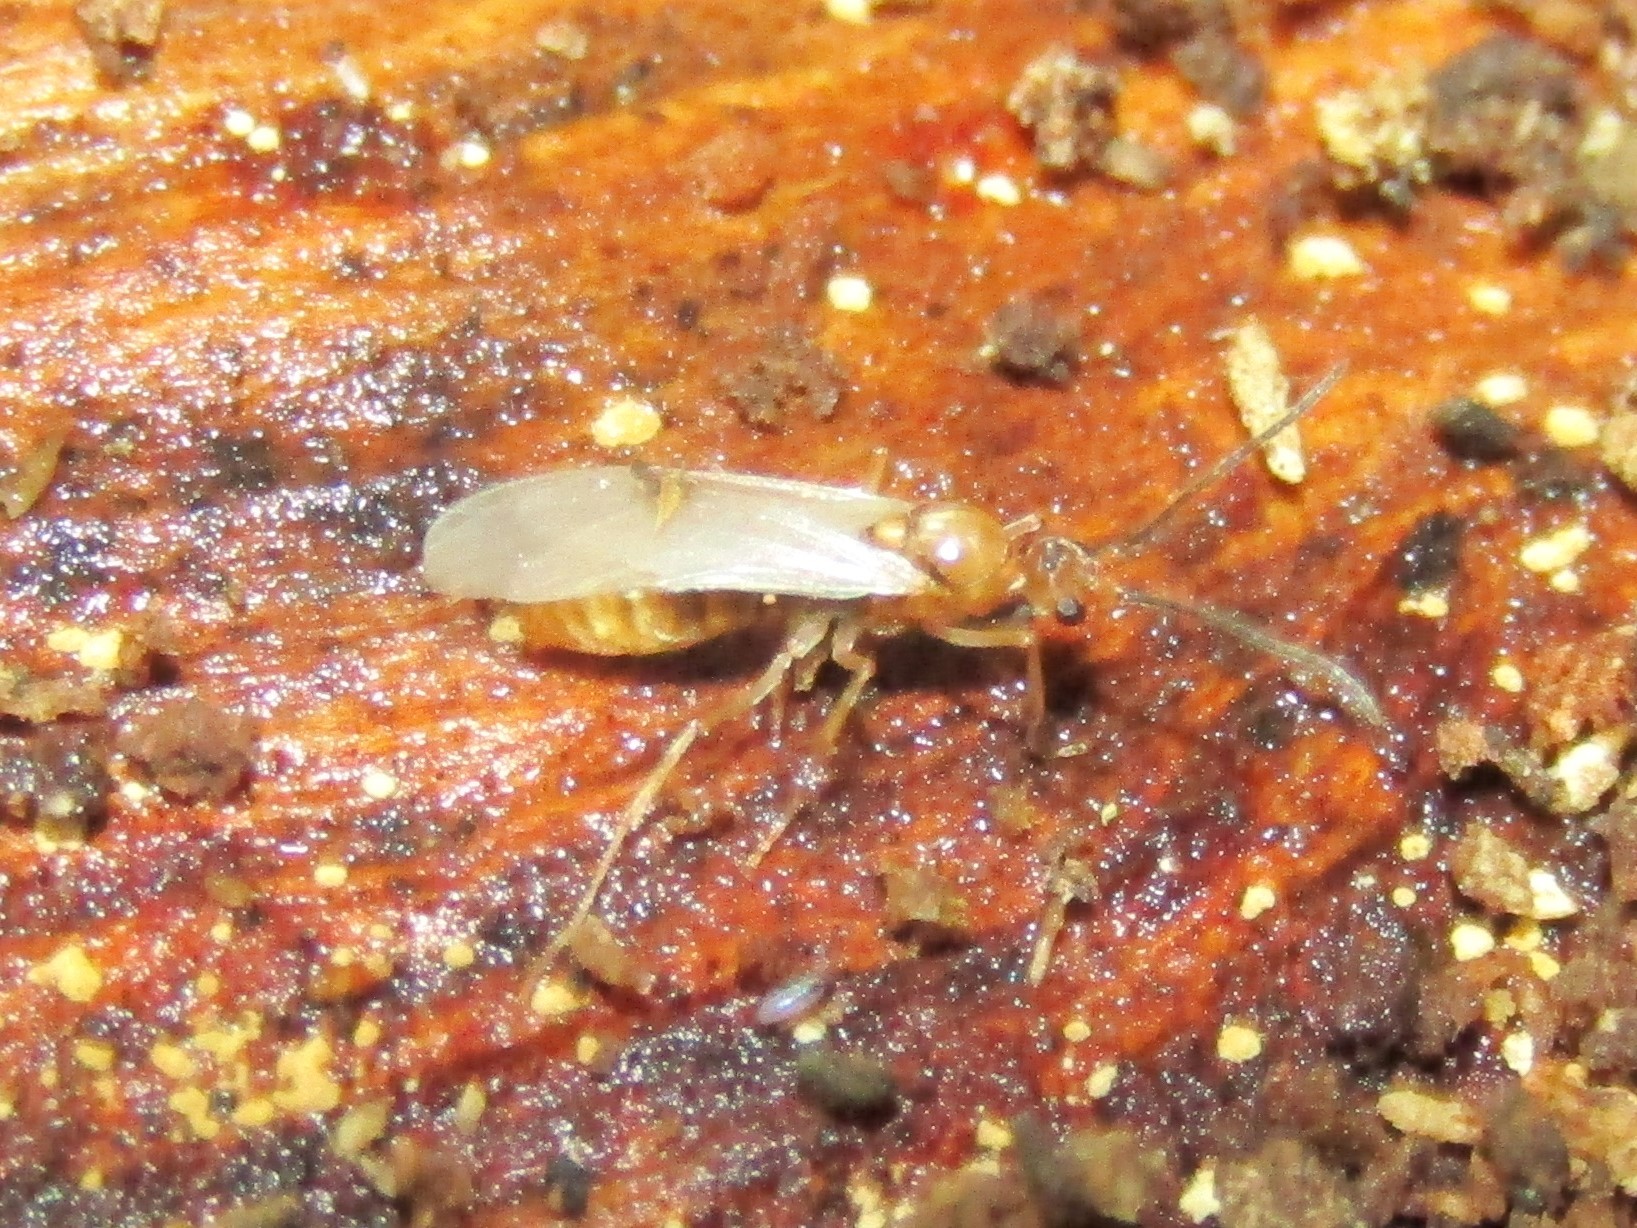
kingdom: Animalia
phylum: Arthropoda
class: Insecta
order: Hymenoptera
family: Formicidae
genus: Pachycondyla
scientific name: Pachycondyla chinensis
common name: Asian needle ant
